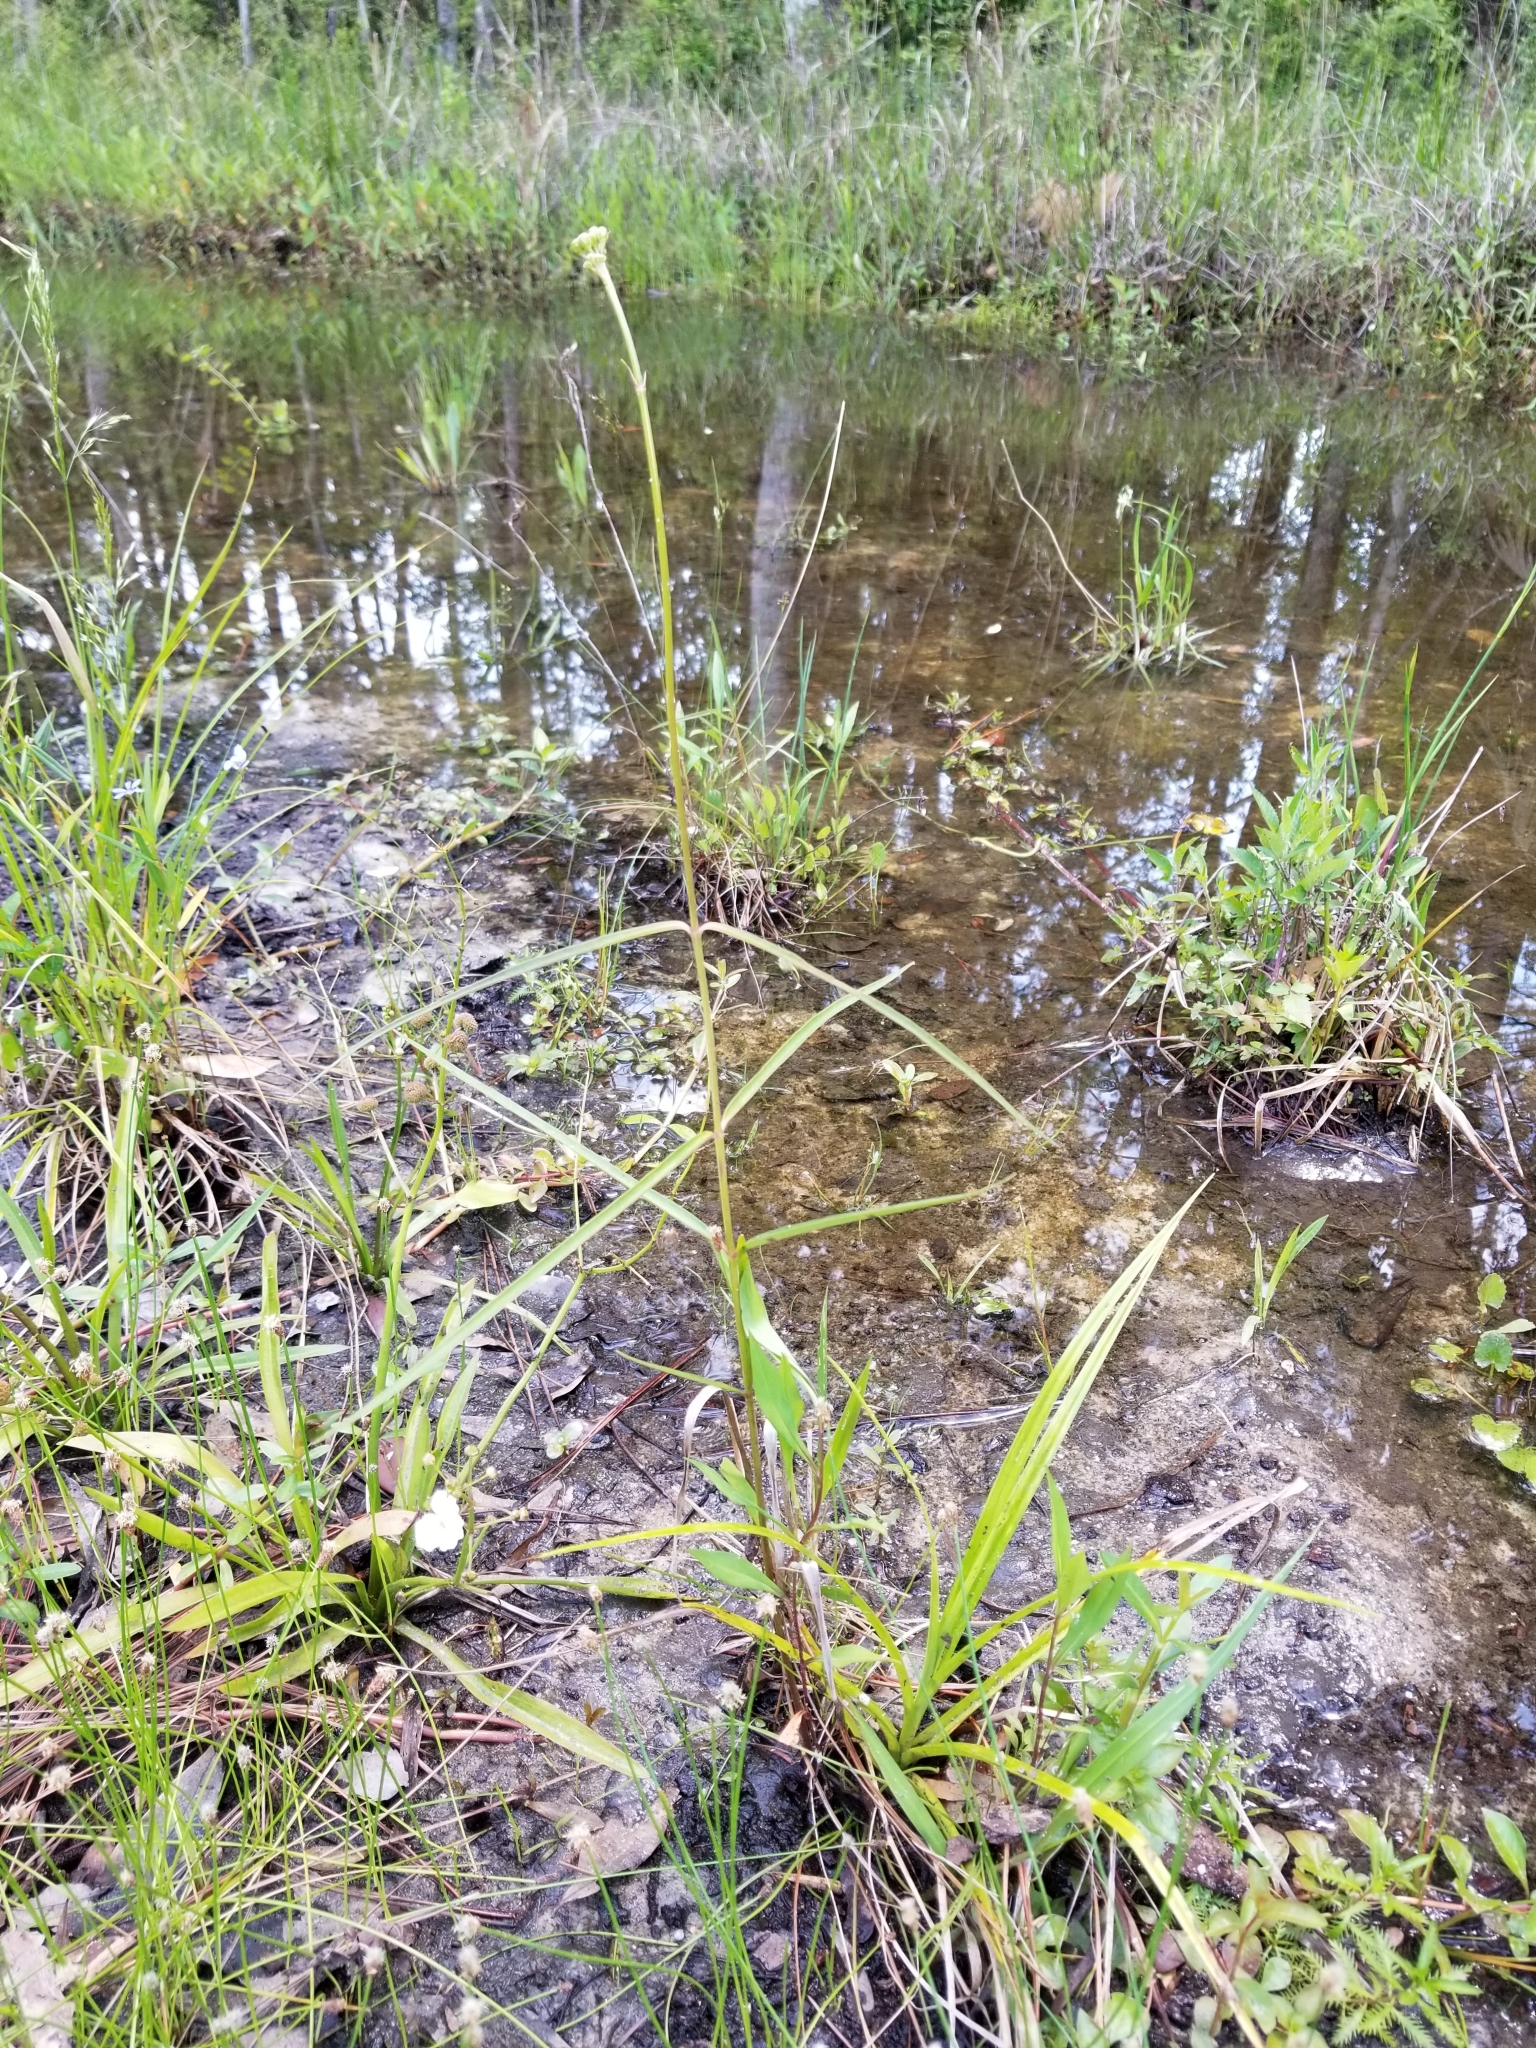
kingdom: Plantae
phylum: Tracheophyta
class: Magnoliopsida
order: Gentianales
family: Apocynaceae
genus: Asclepias
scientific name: Asclepias lanceolata
